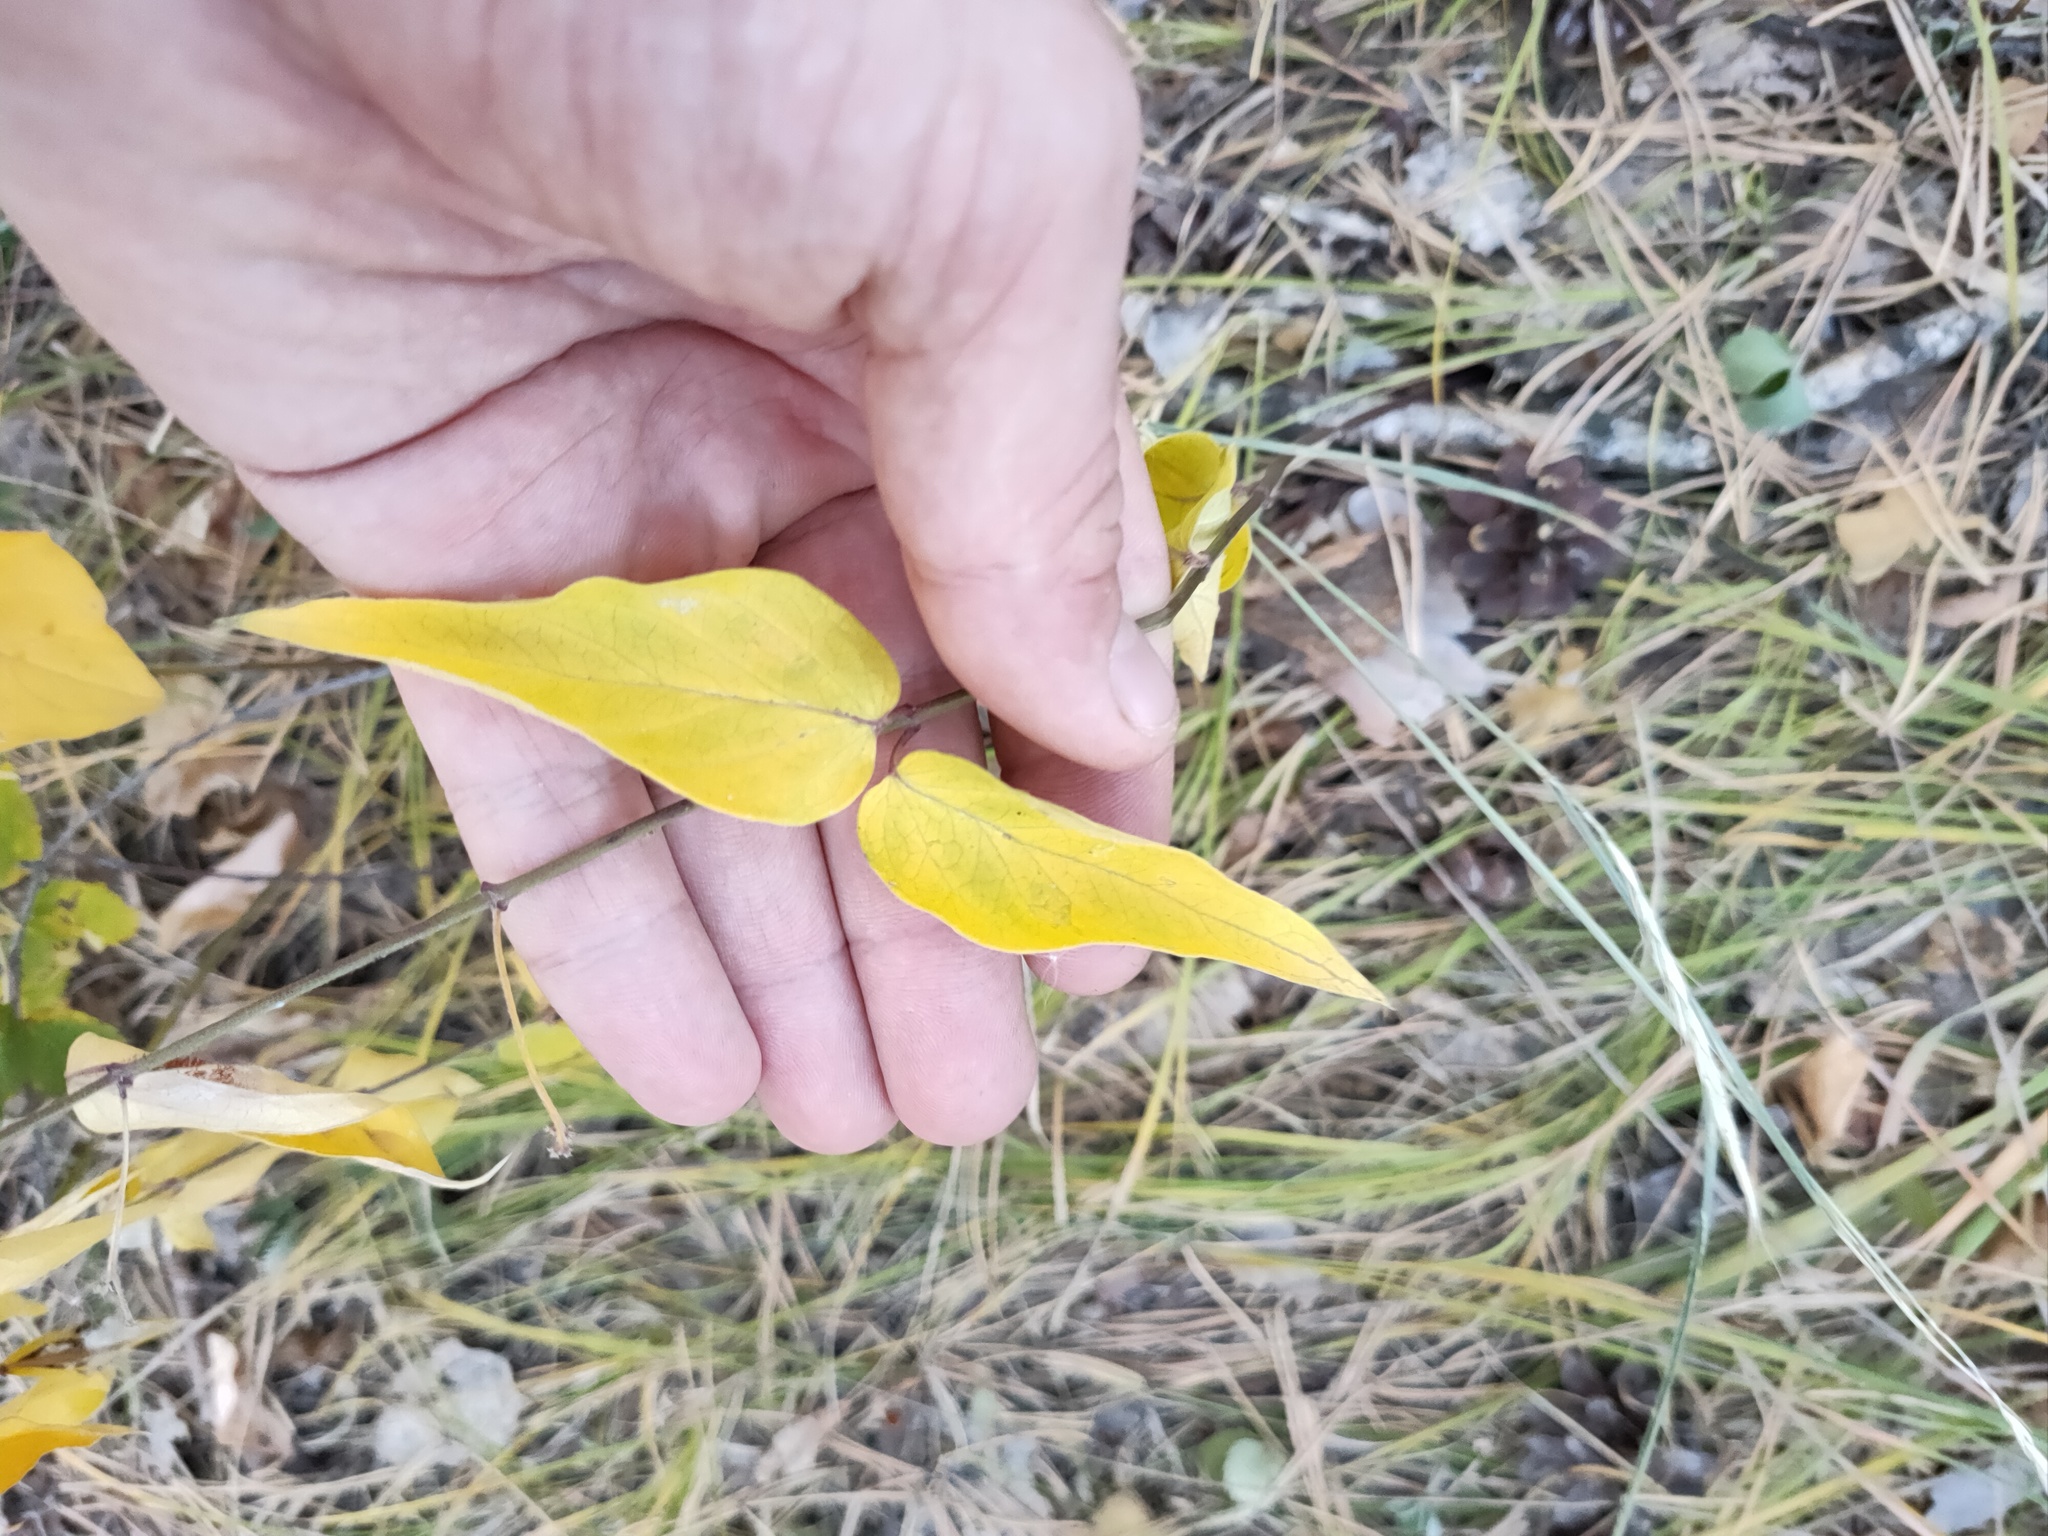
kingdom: Plantae
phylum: Tracheophyta
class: Magnoliopsida
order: Gentianales
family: Apocynaceae
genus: Vincetoxicum
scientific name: Vincetoxicum hirundinaria
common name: White swallowwort
